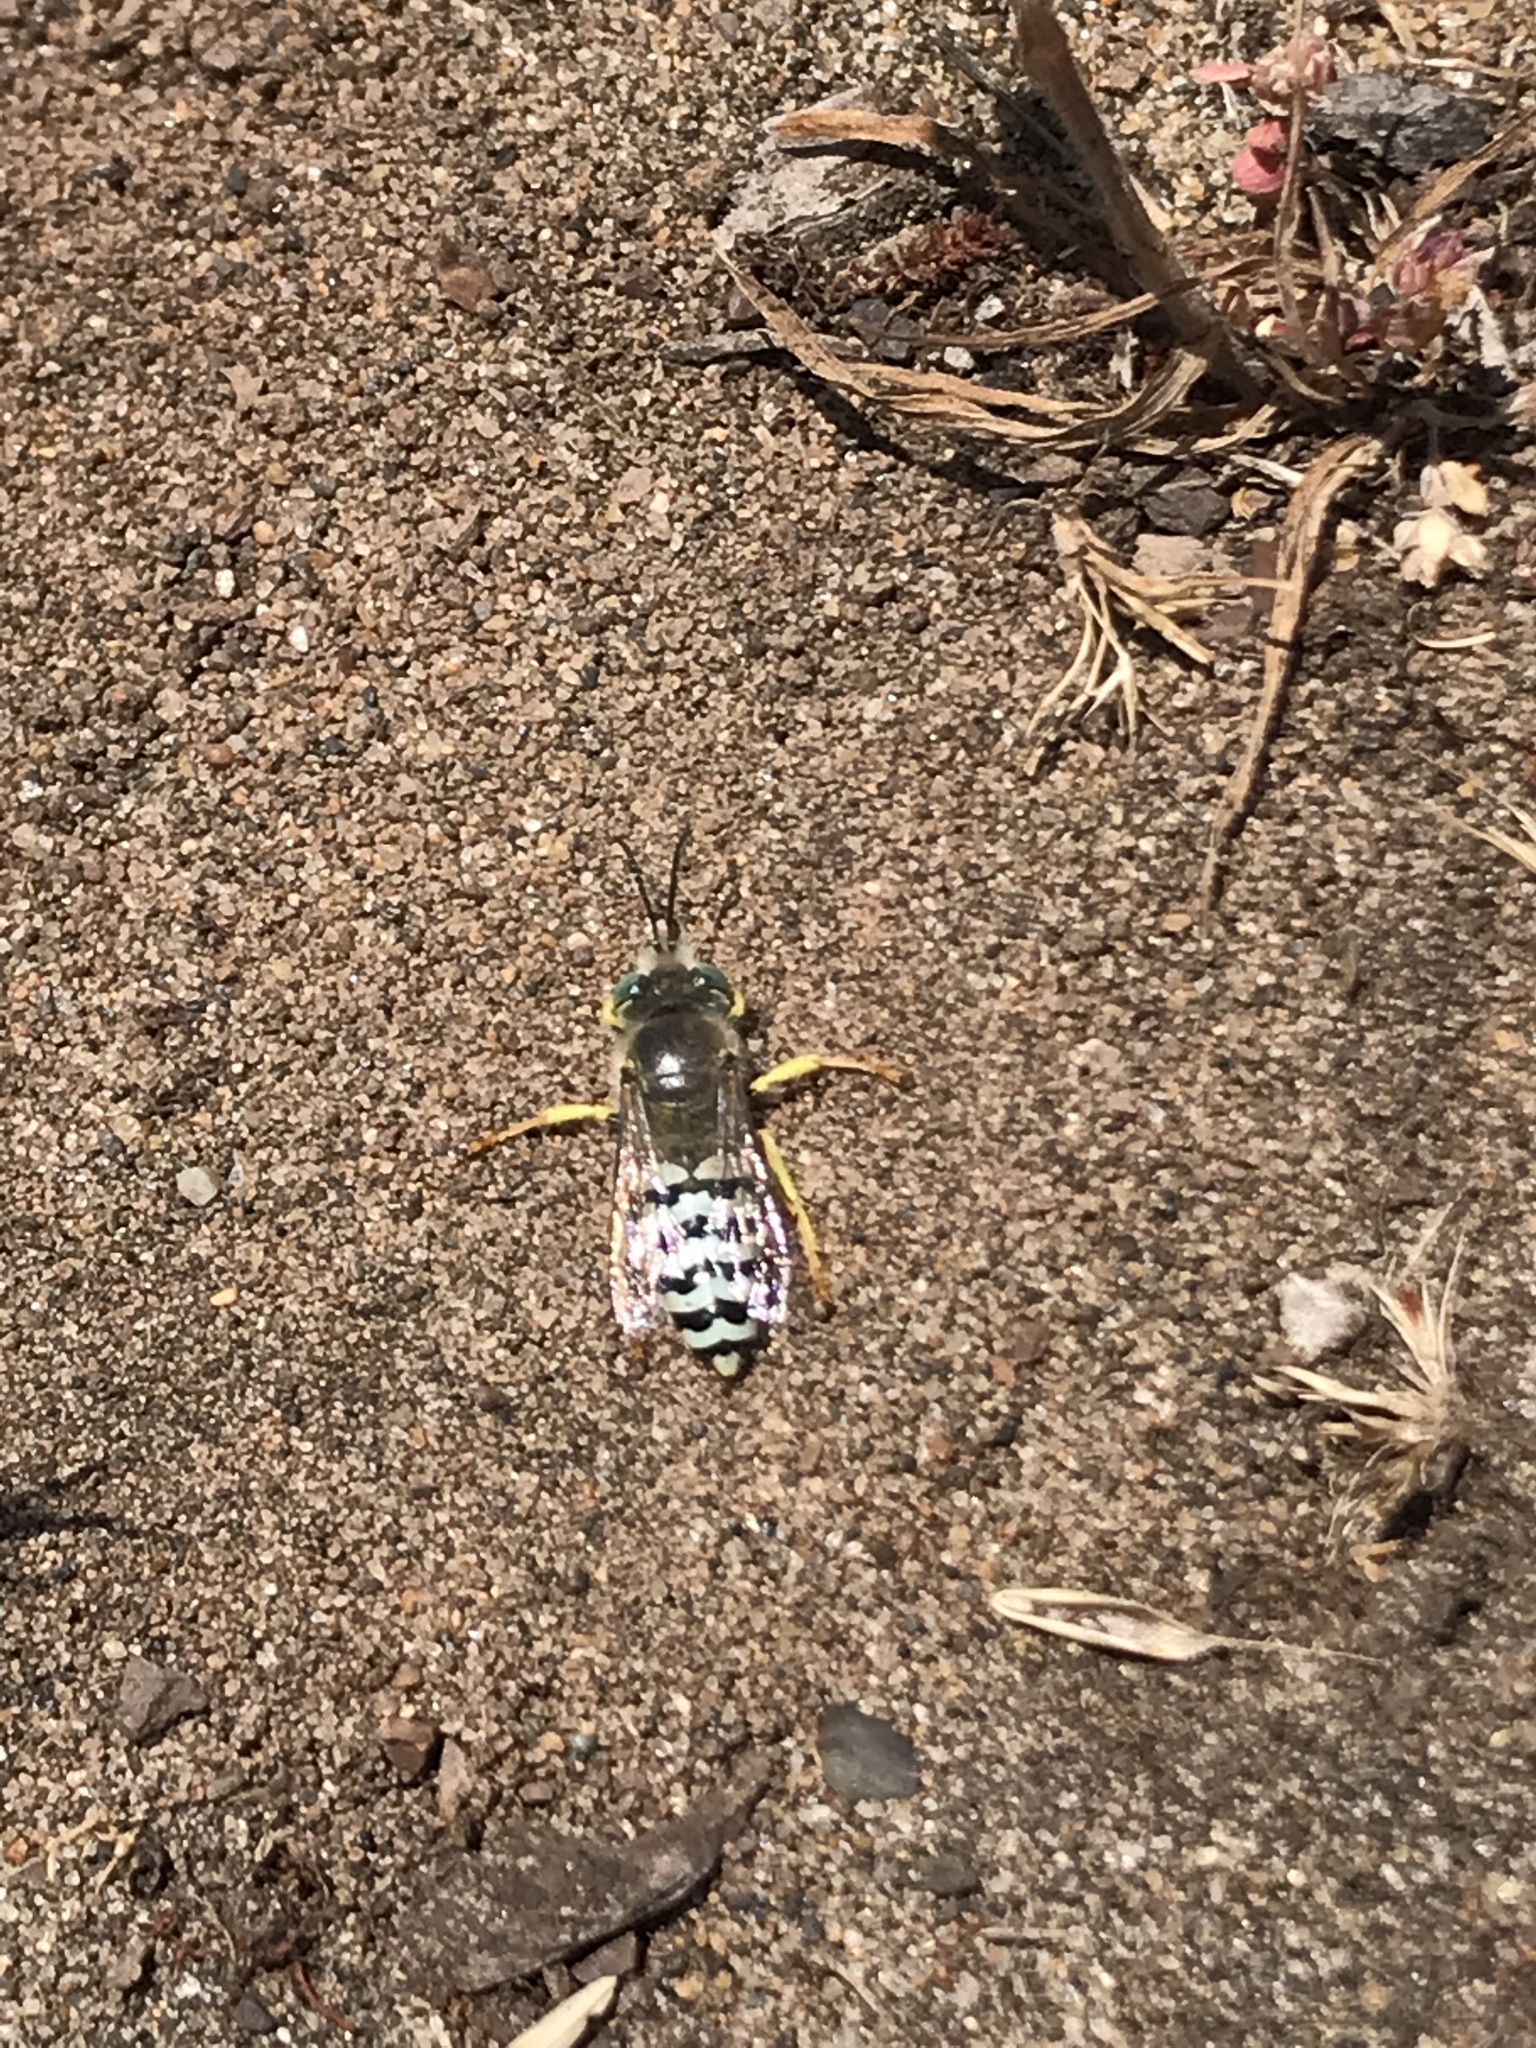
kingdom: Animalia
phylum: Arthropoda
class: Insecta
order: Hymenoptera
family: Crabronidae
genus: Bembix
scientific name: Bembix americana
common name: American sand wasp
